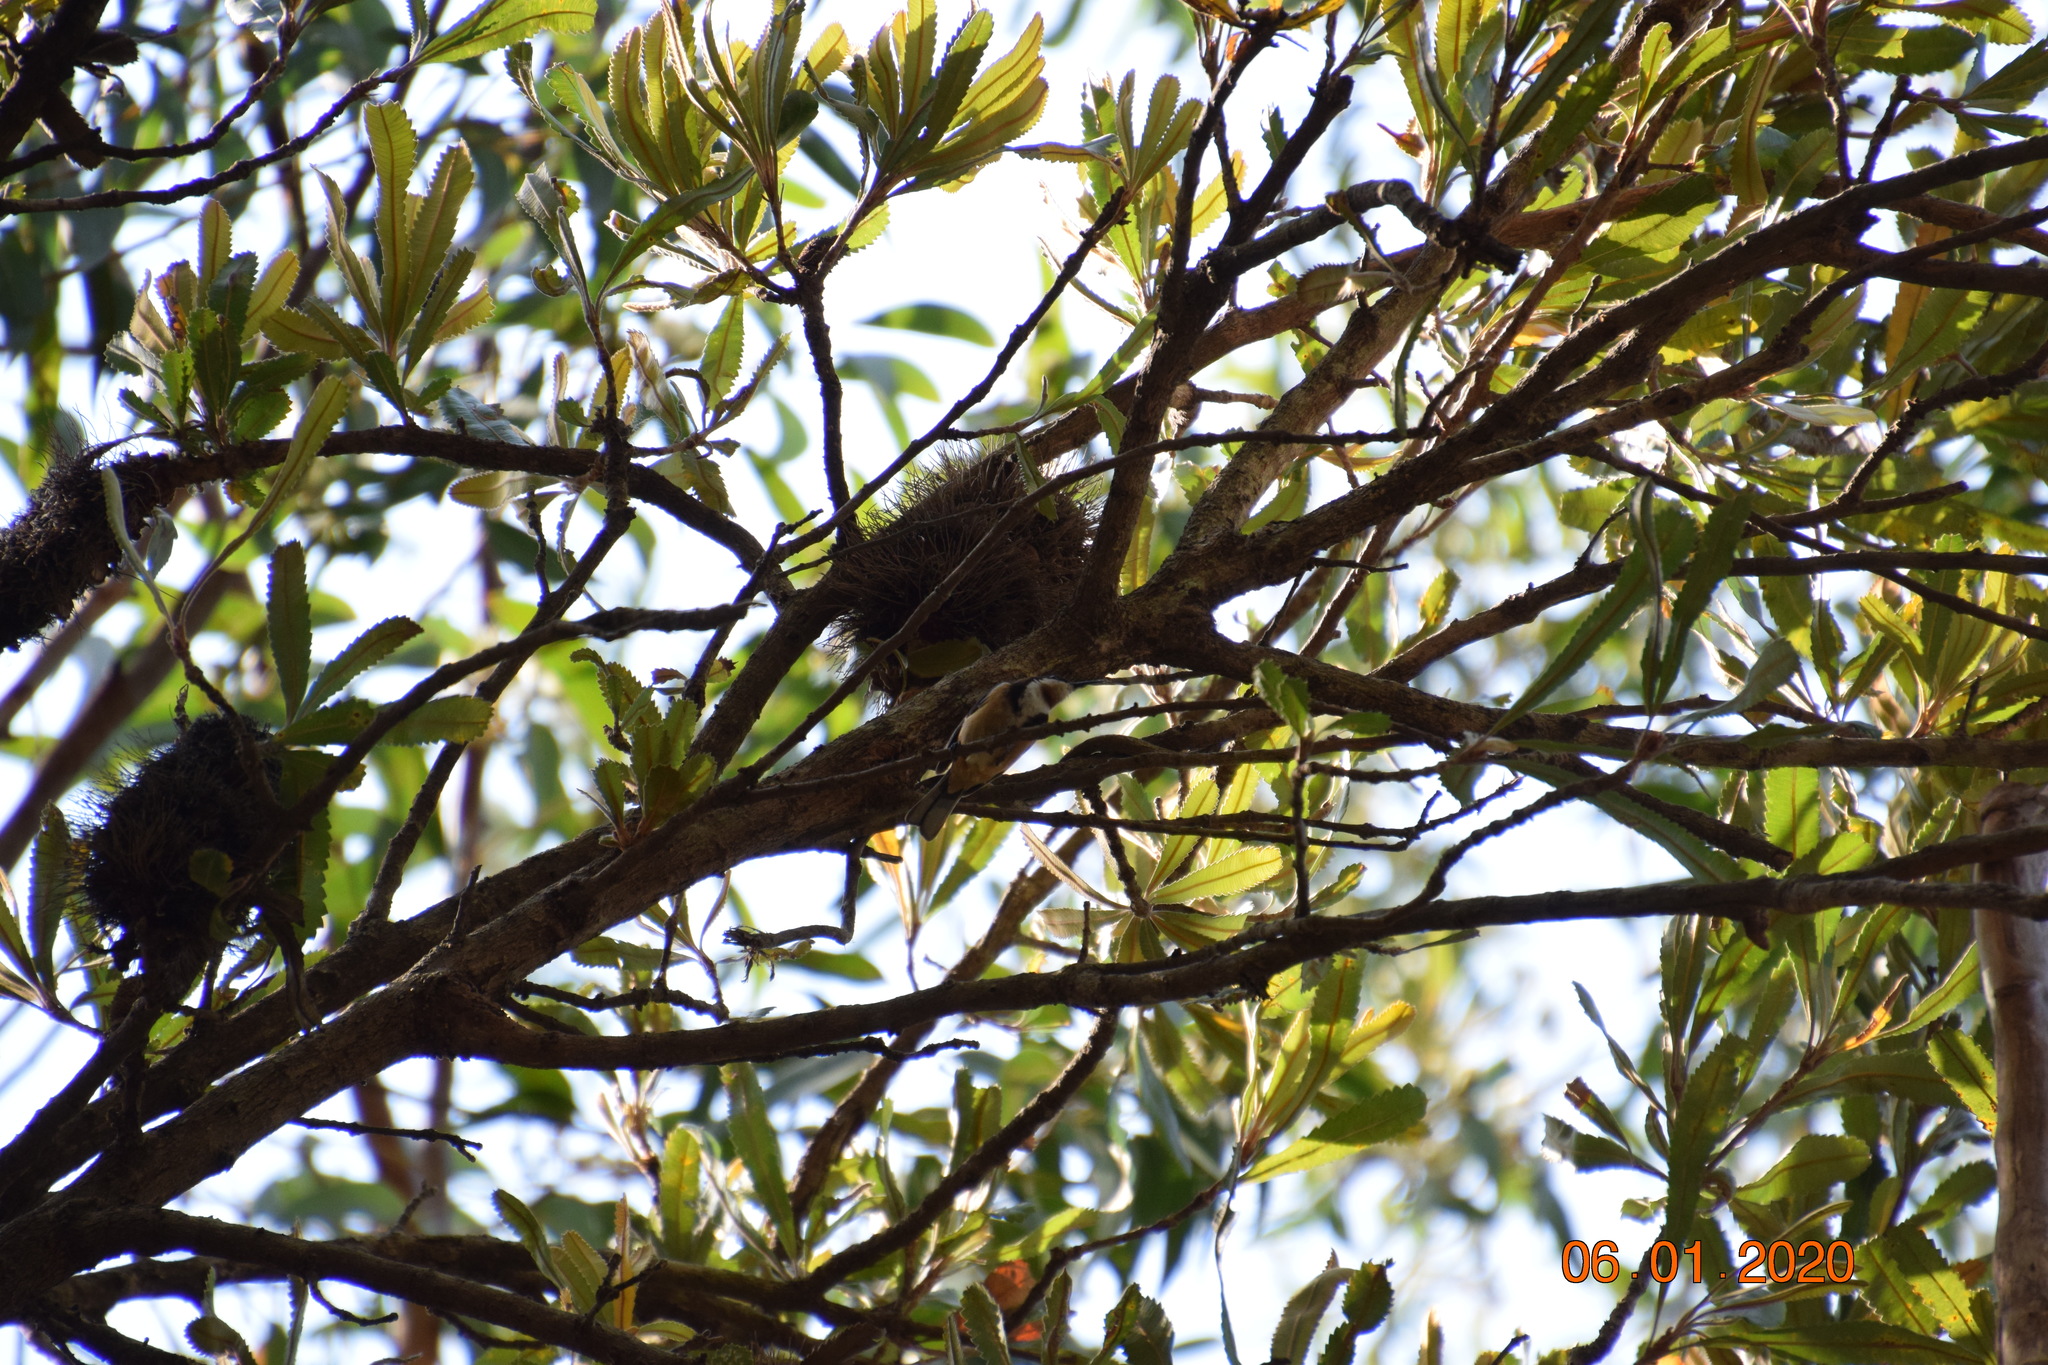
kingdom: Animalia
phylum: Chordata
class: Aves
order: Passeriformes
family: Meliphagidae
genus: Acanthorhynchus
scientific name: Acanthorhynchus tenuirostris
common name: Eastern spinebill
